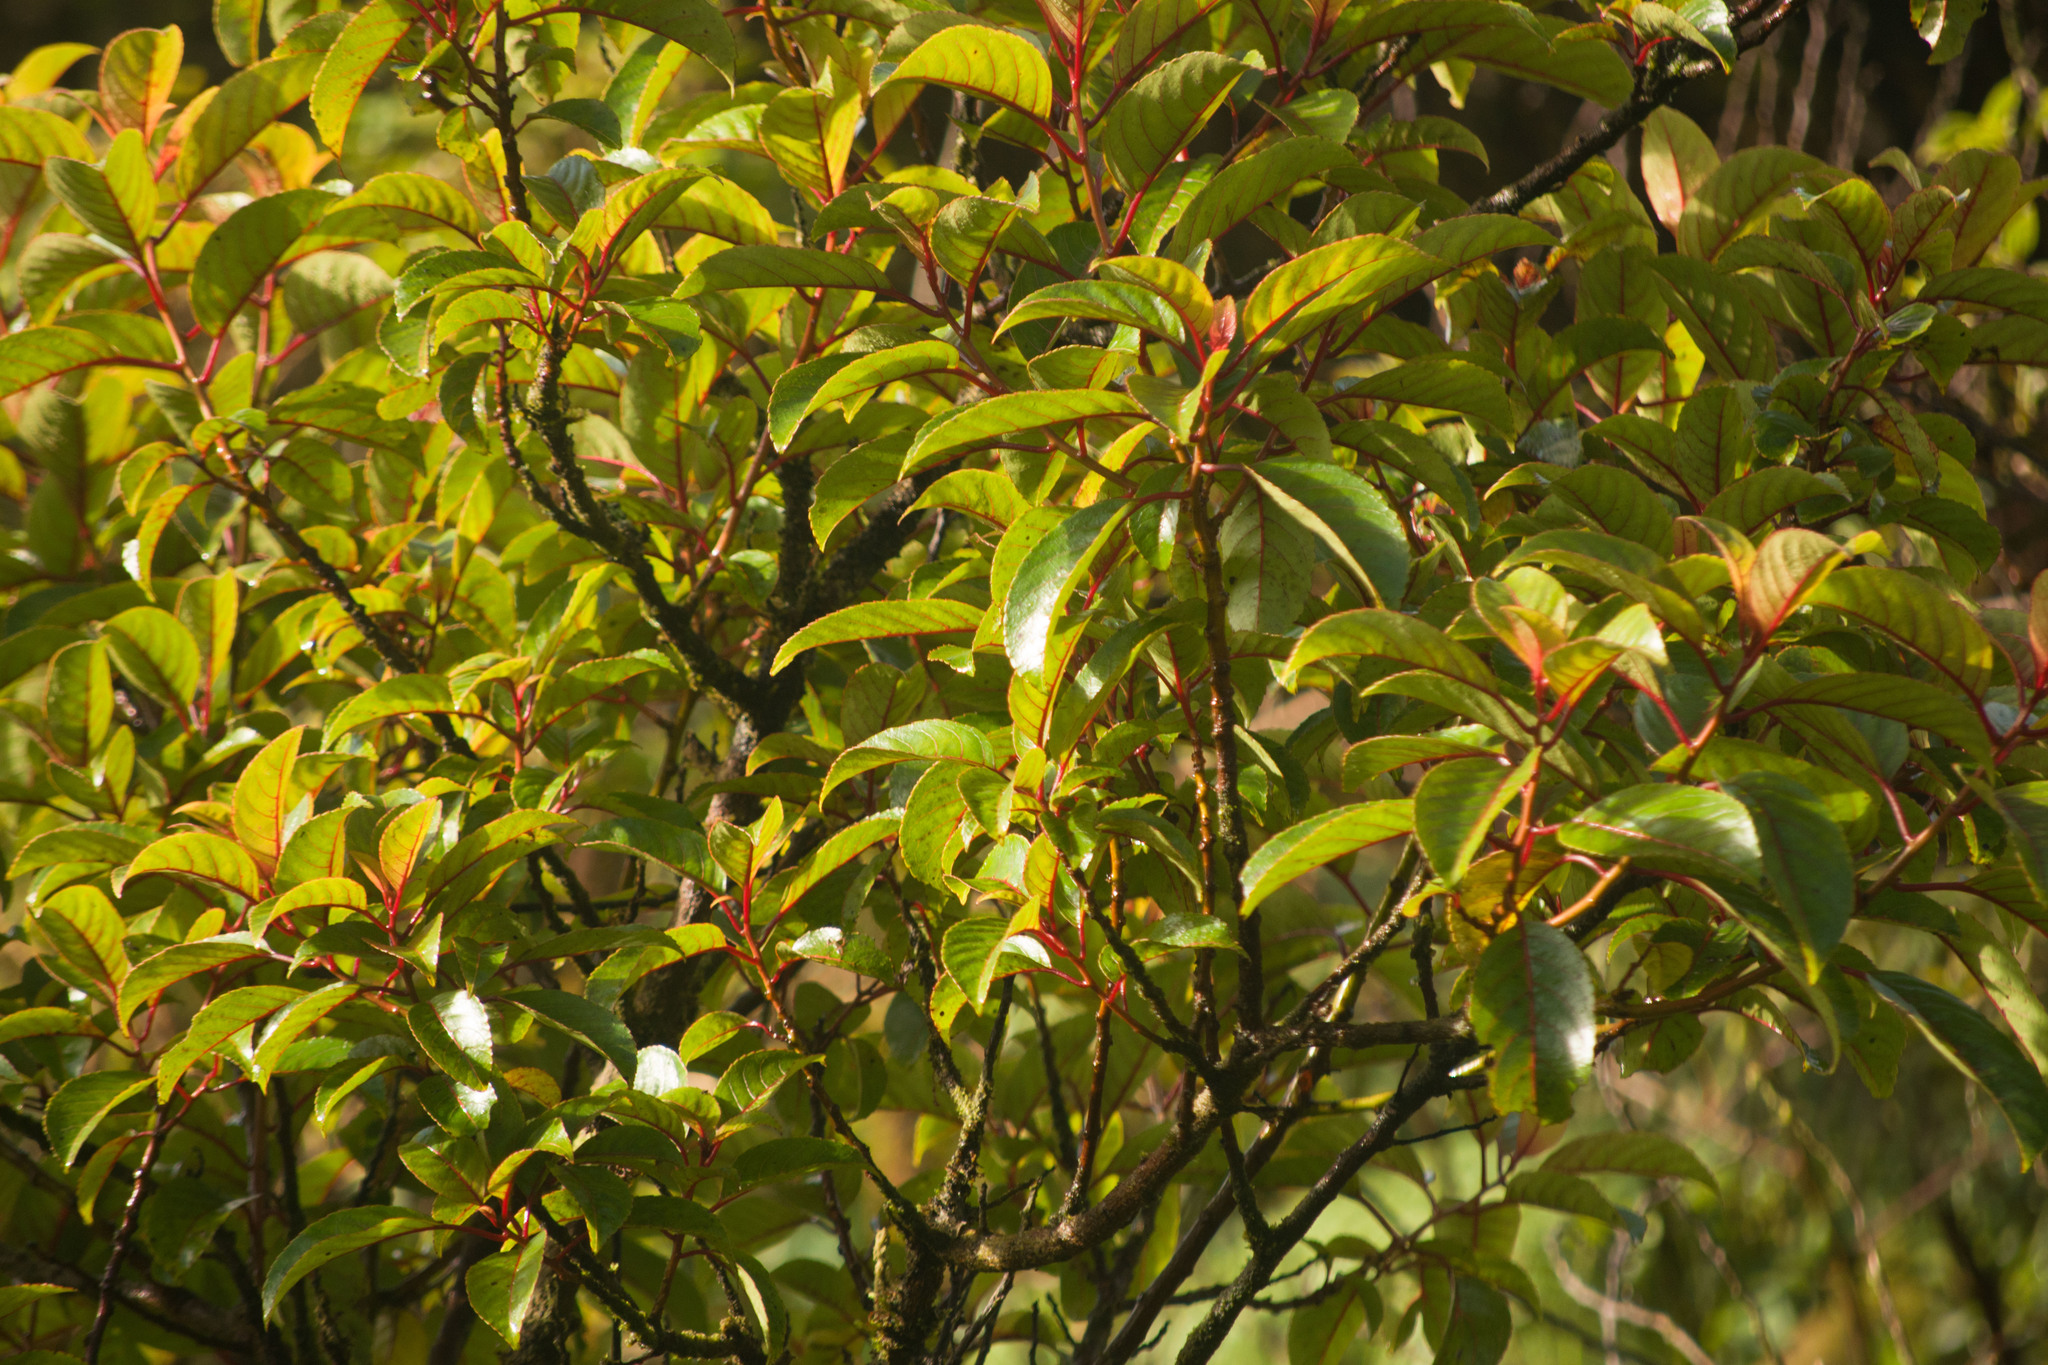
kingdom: Plantae
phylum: Tracheophyta
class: Magnoliopsida
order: Huerteales
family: Dipentodontaceae
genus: Perrottetia
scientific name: Perrottetia sandwicensis
